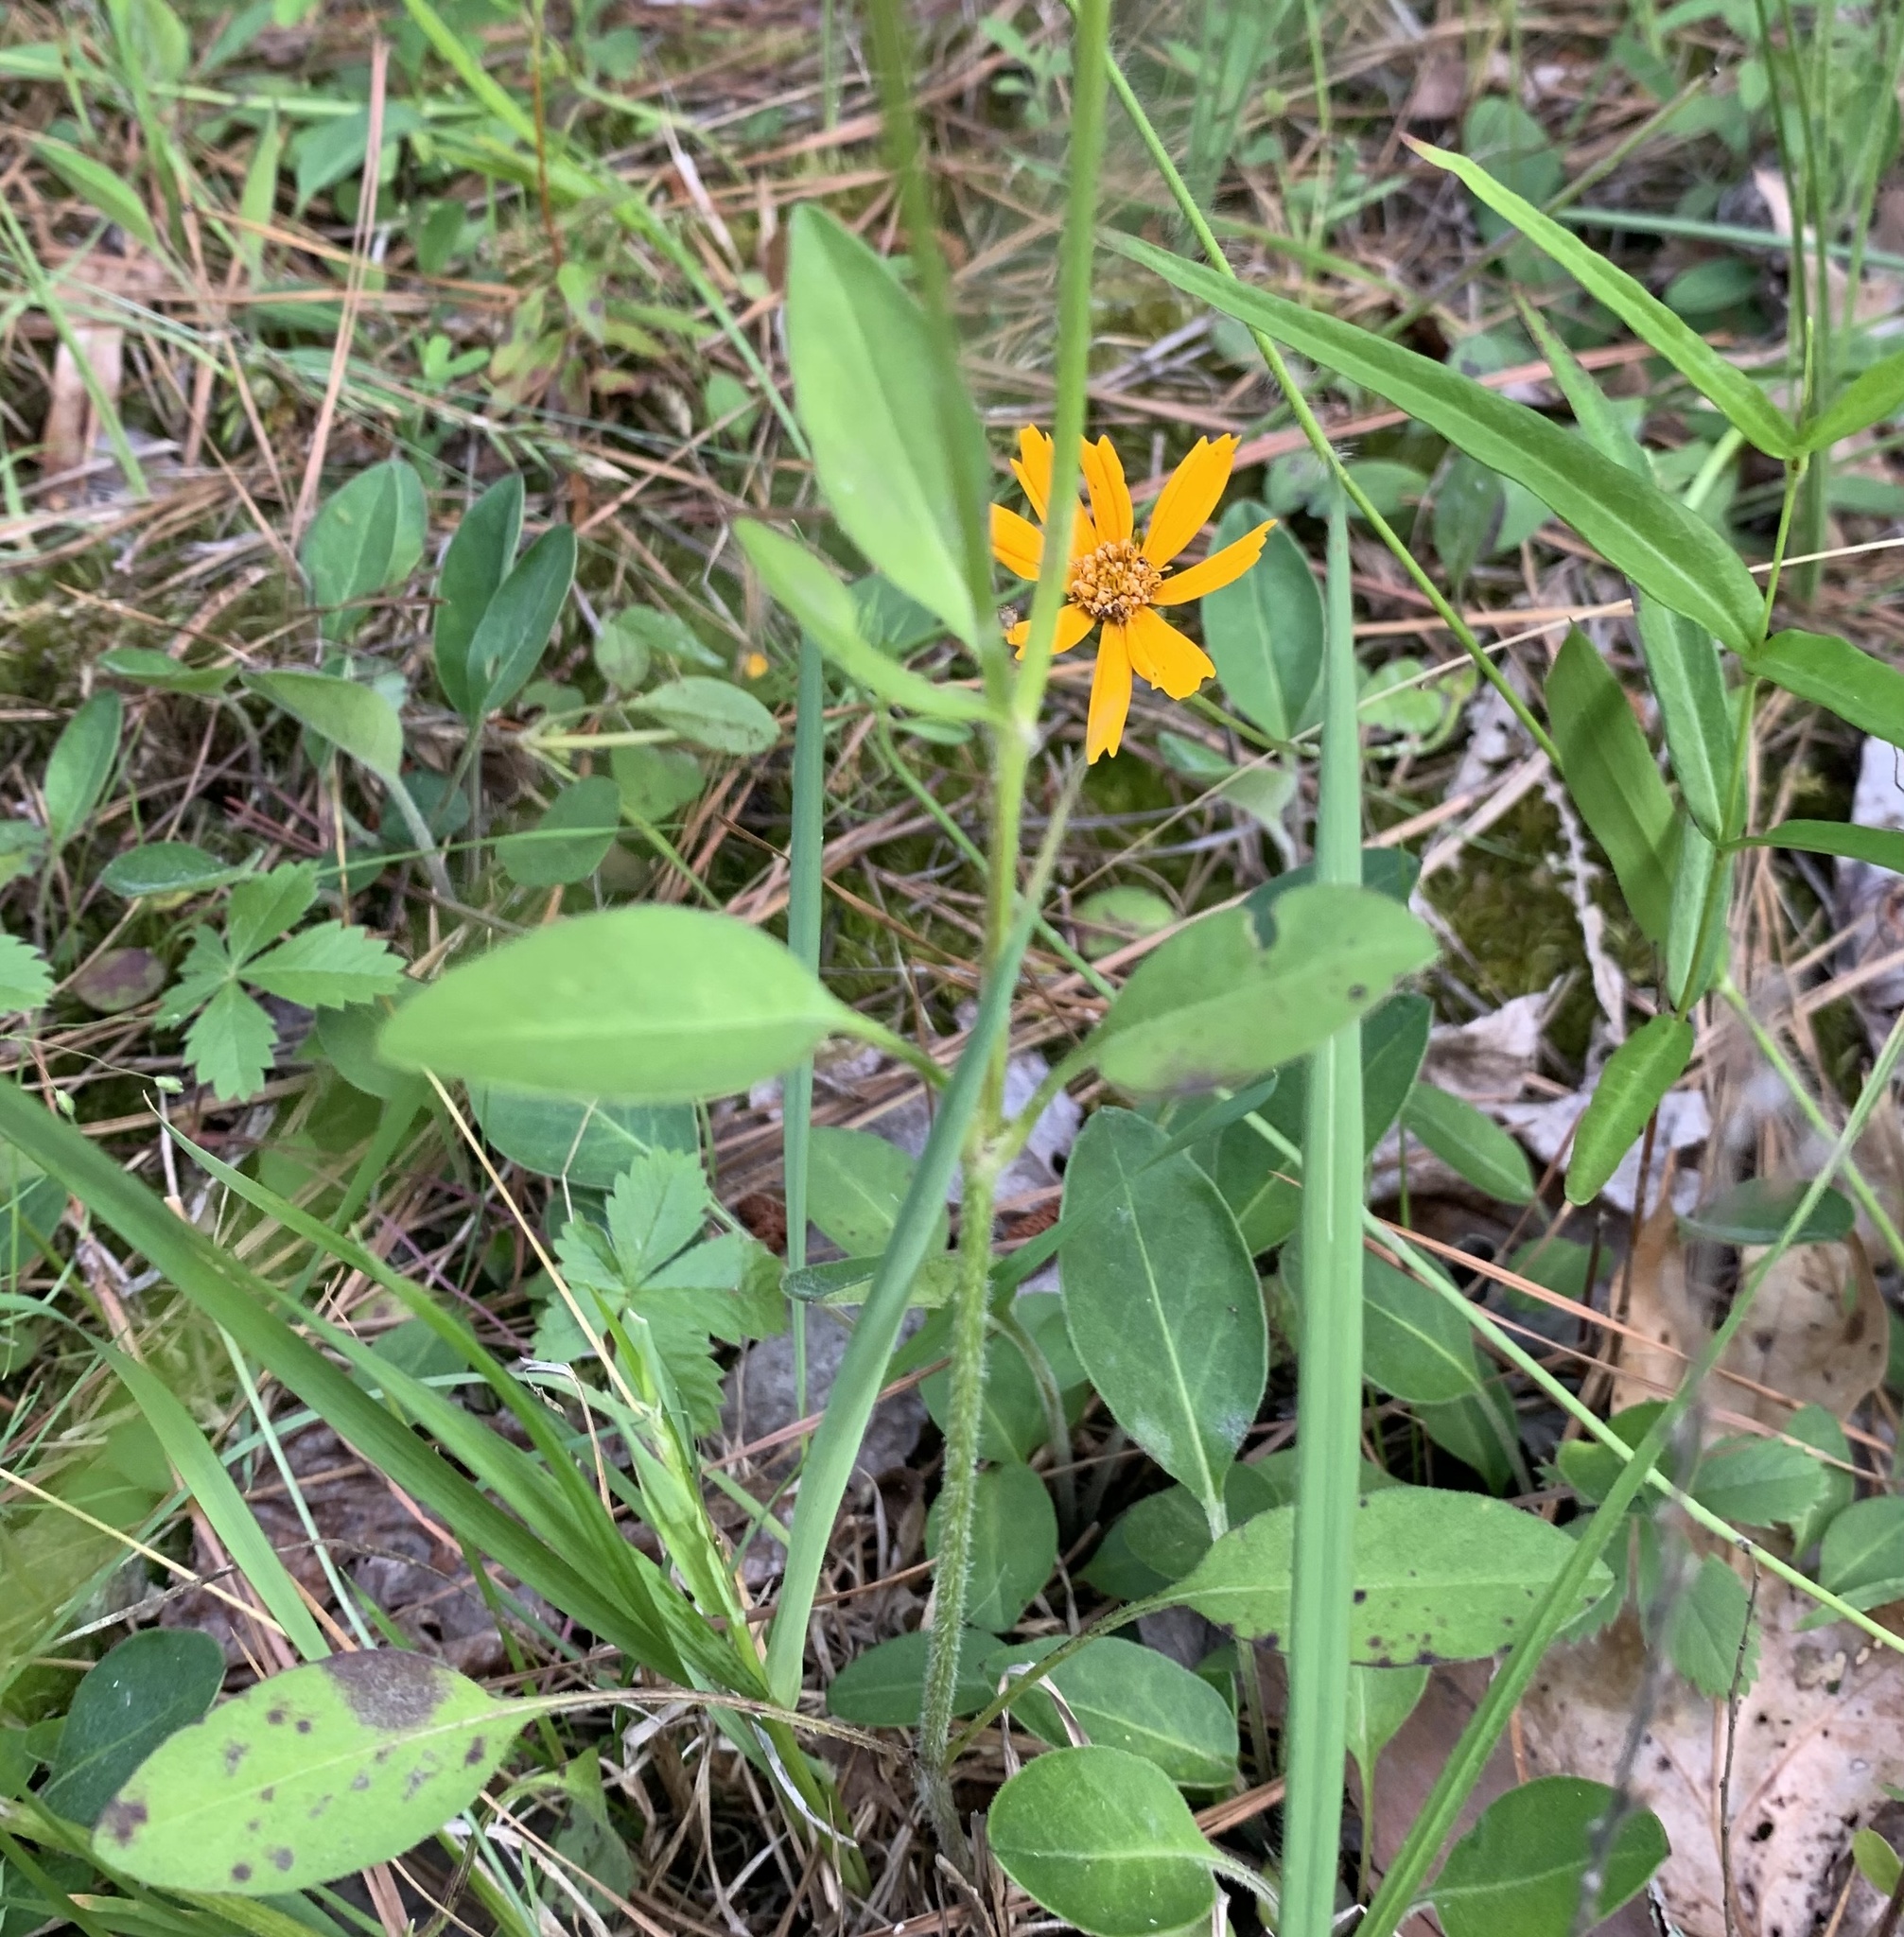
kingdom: Plantae
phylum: Tracheophyta
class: Magnoliopsida
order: Asterales
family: Asteraceae
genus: Coreopsis
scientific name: Coreopsis auriculata
